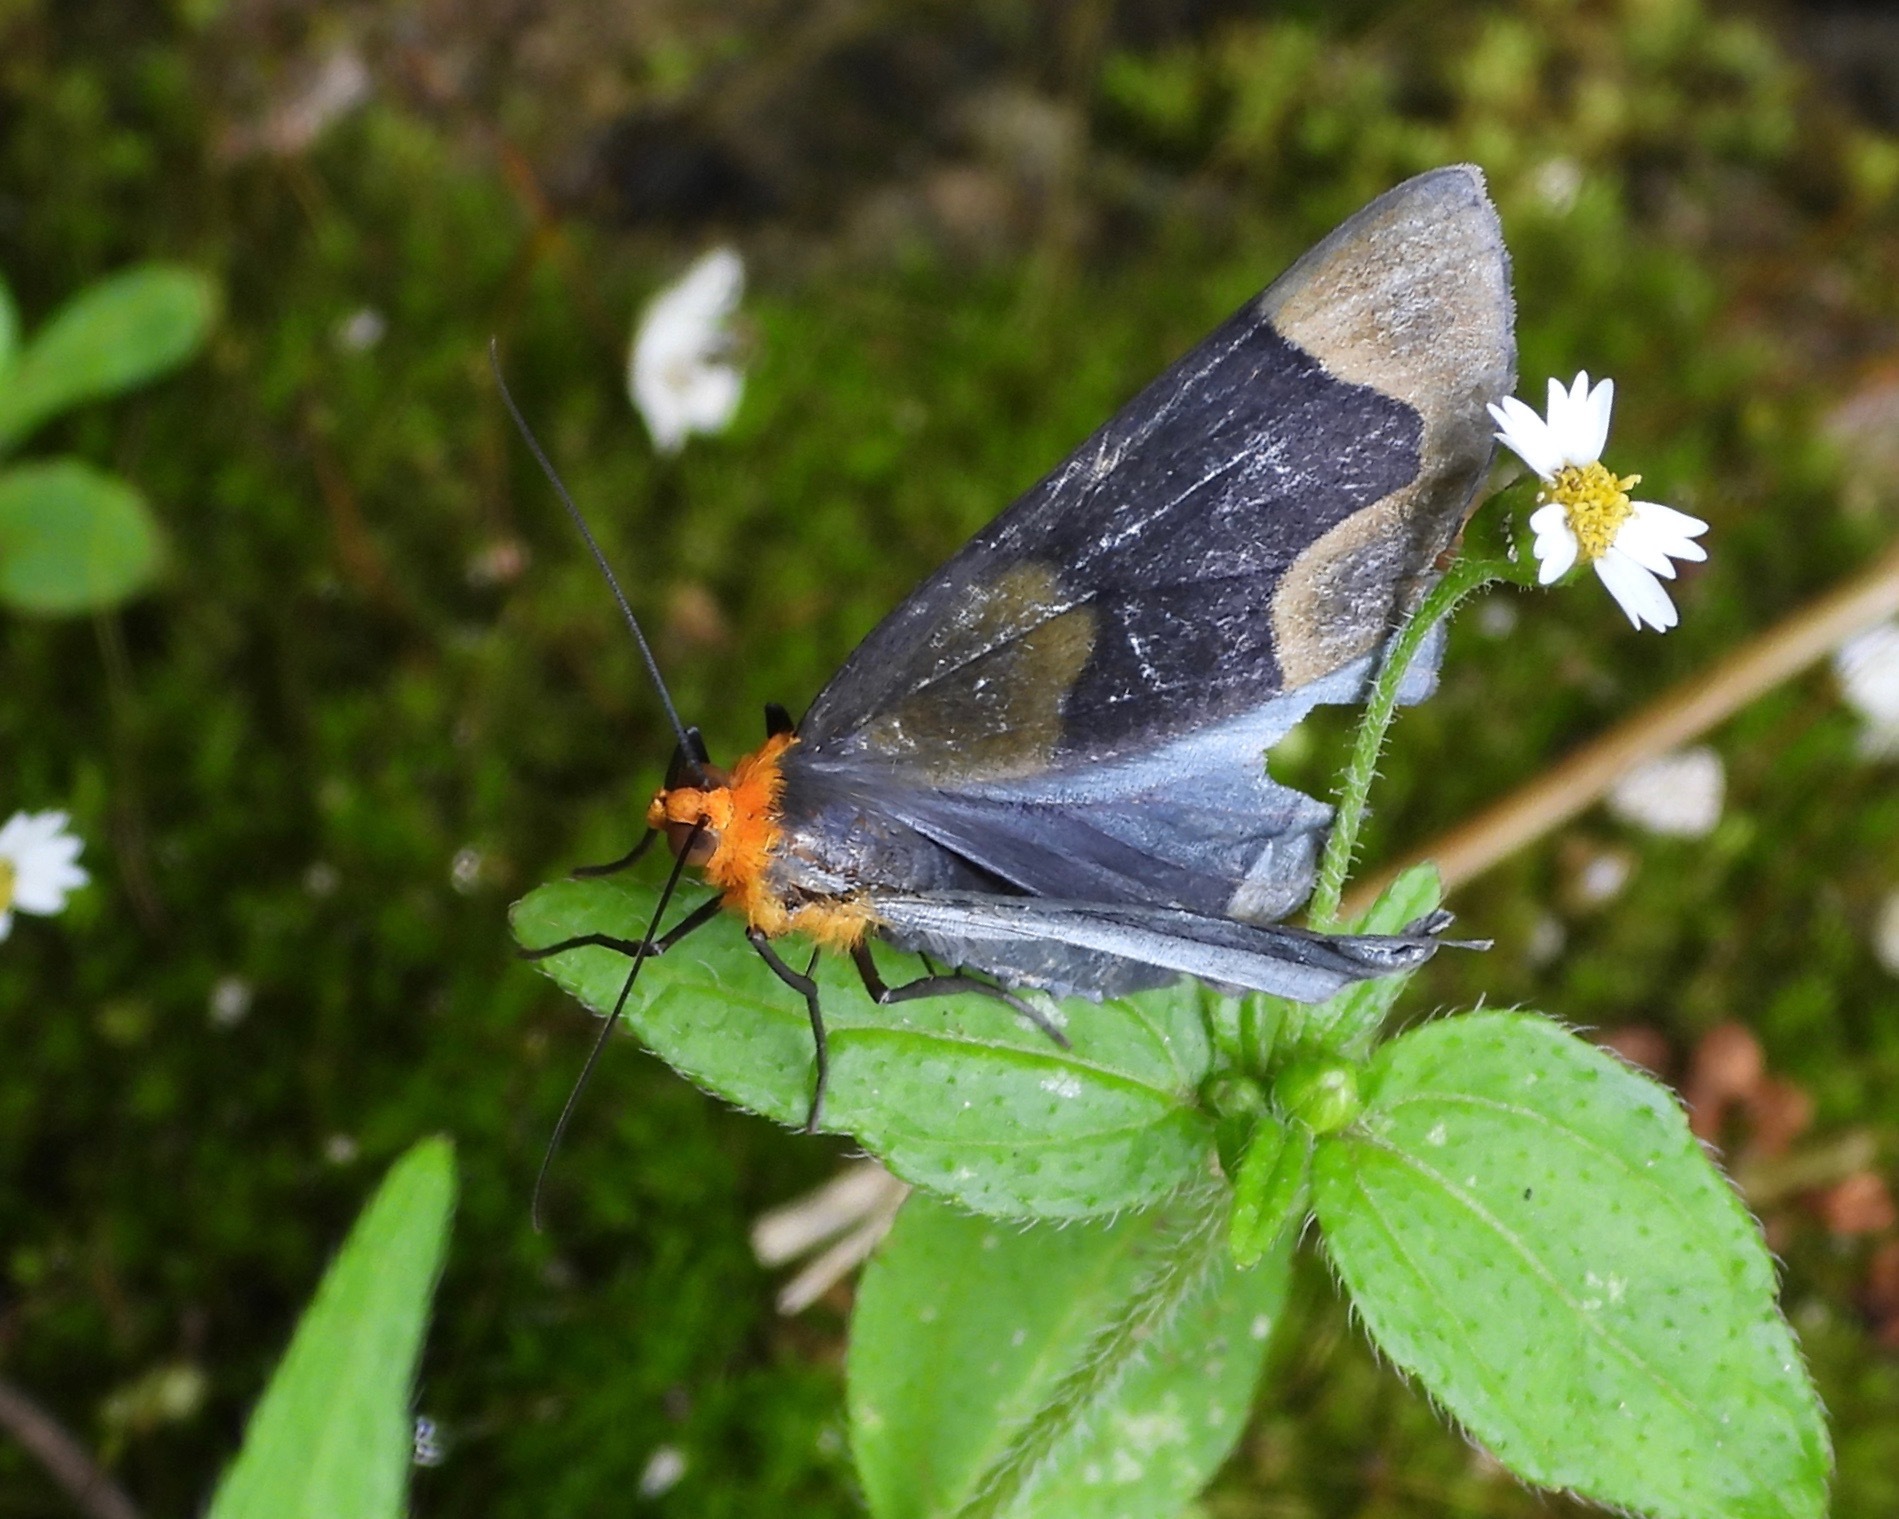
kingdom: Animalia
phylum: Arthropoda
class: Insecta
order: Lepidoptera
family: Geometridae
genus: Simena
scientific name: Simena
